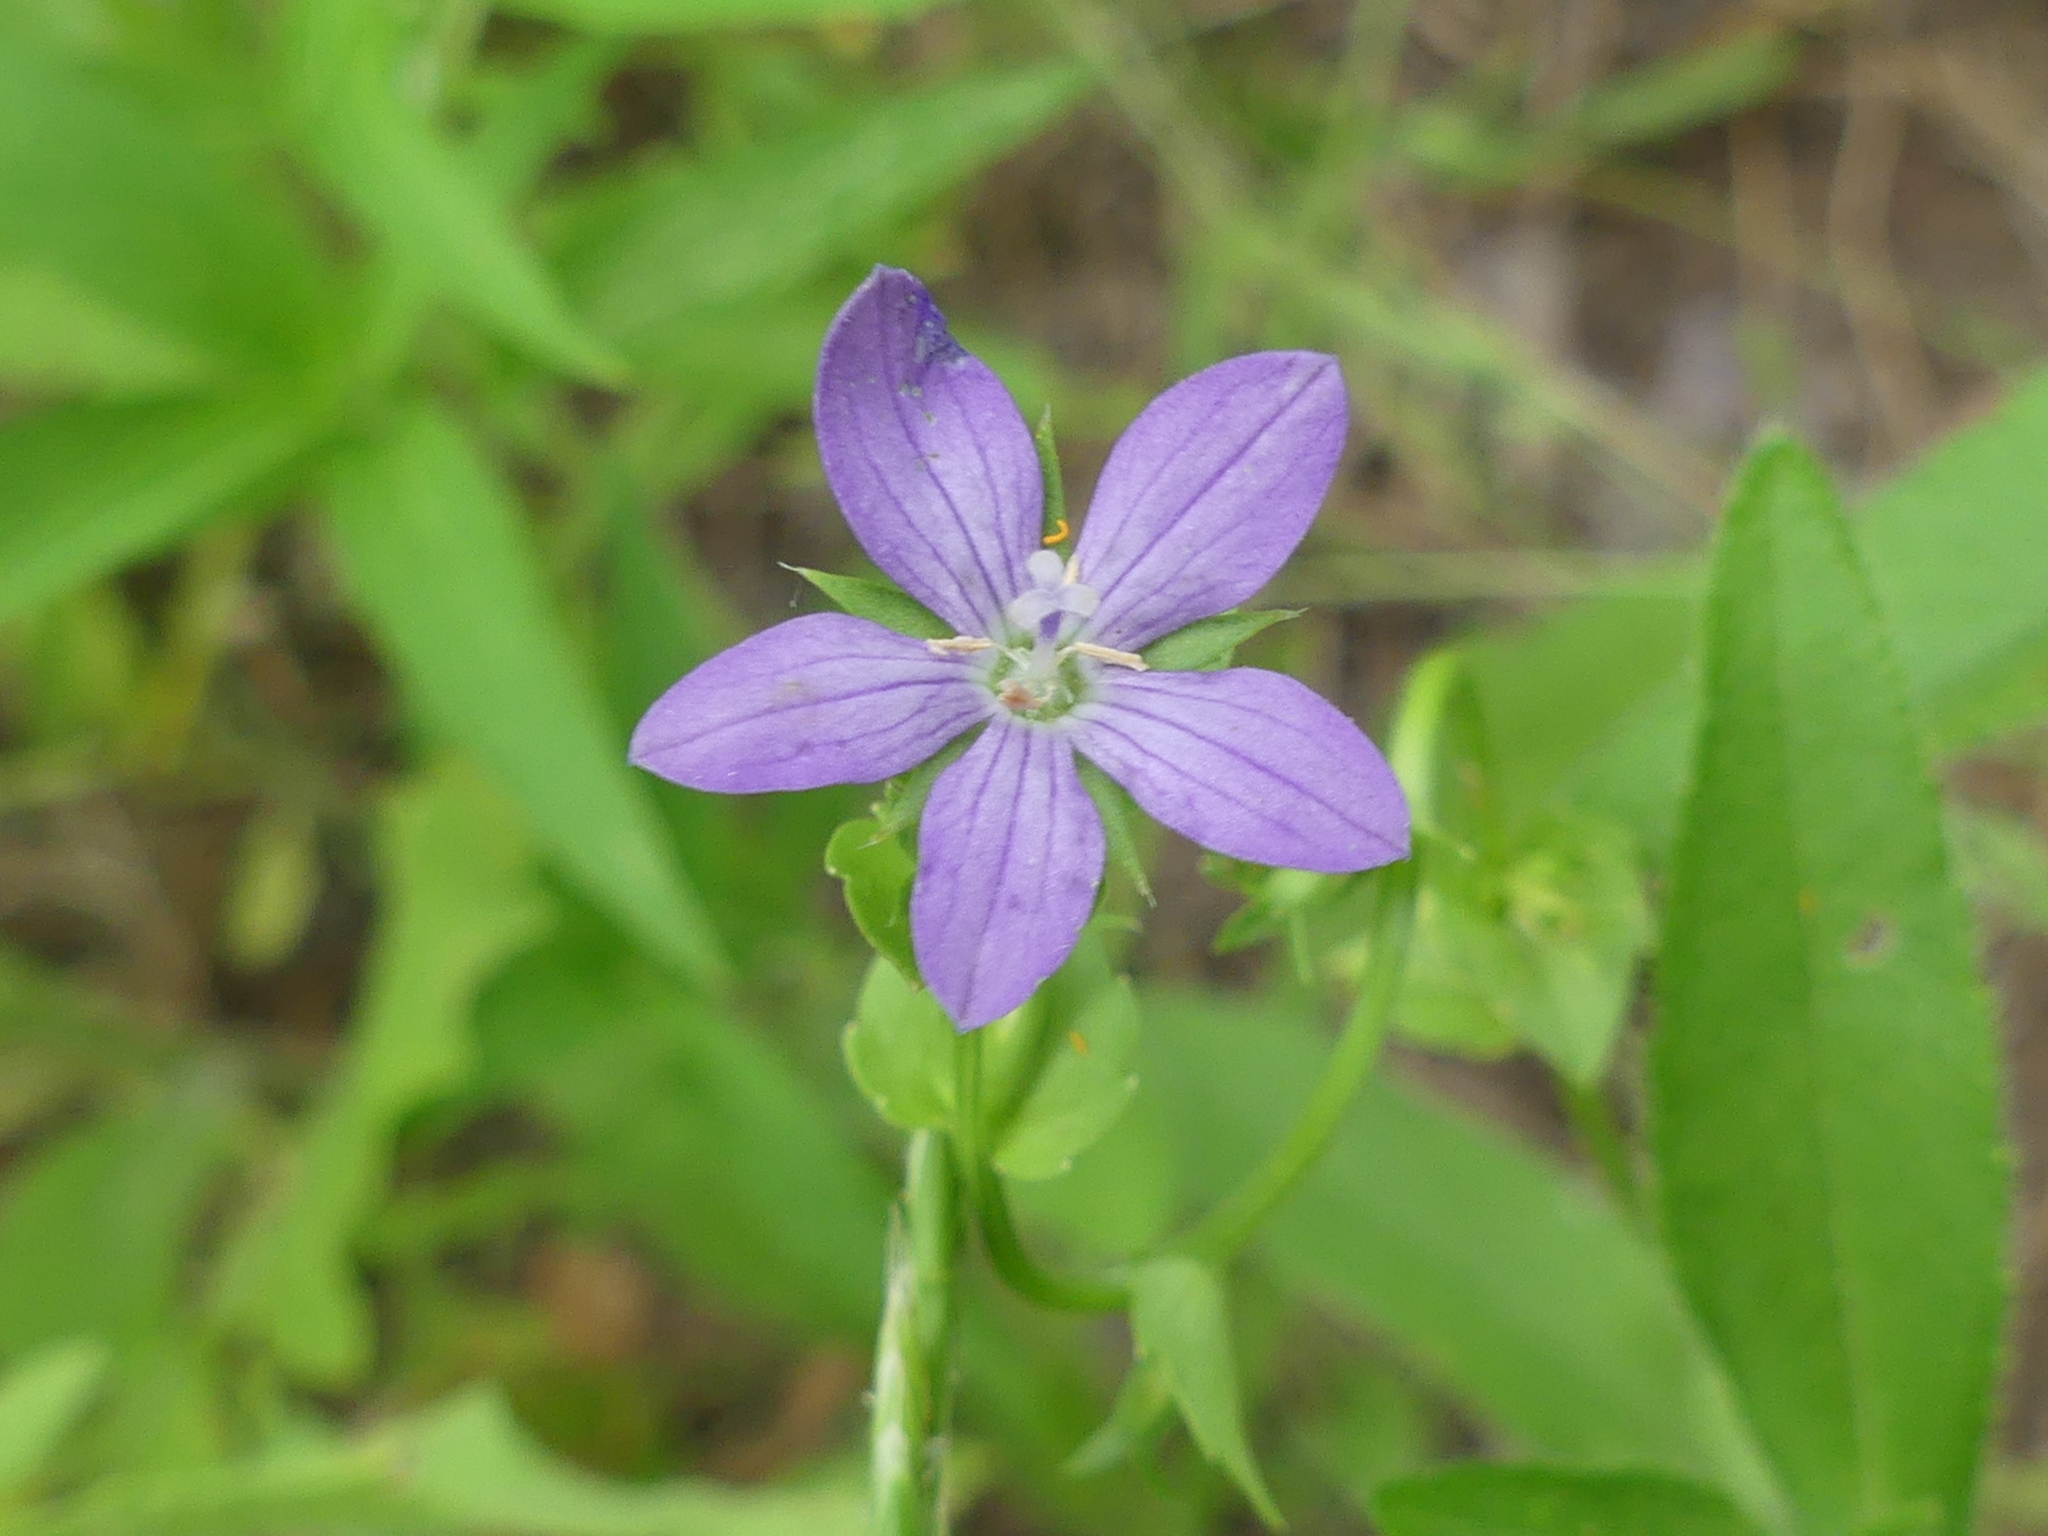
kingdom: Plantae
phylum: Tracheophyta
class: Magnoliopsida
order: Asterales
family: Campanulaceae
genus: Triodanis
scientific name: Triodanis biflora
